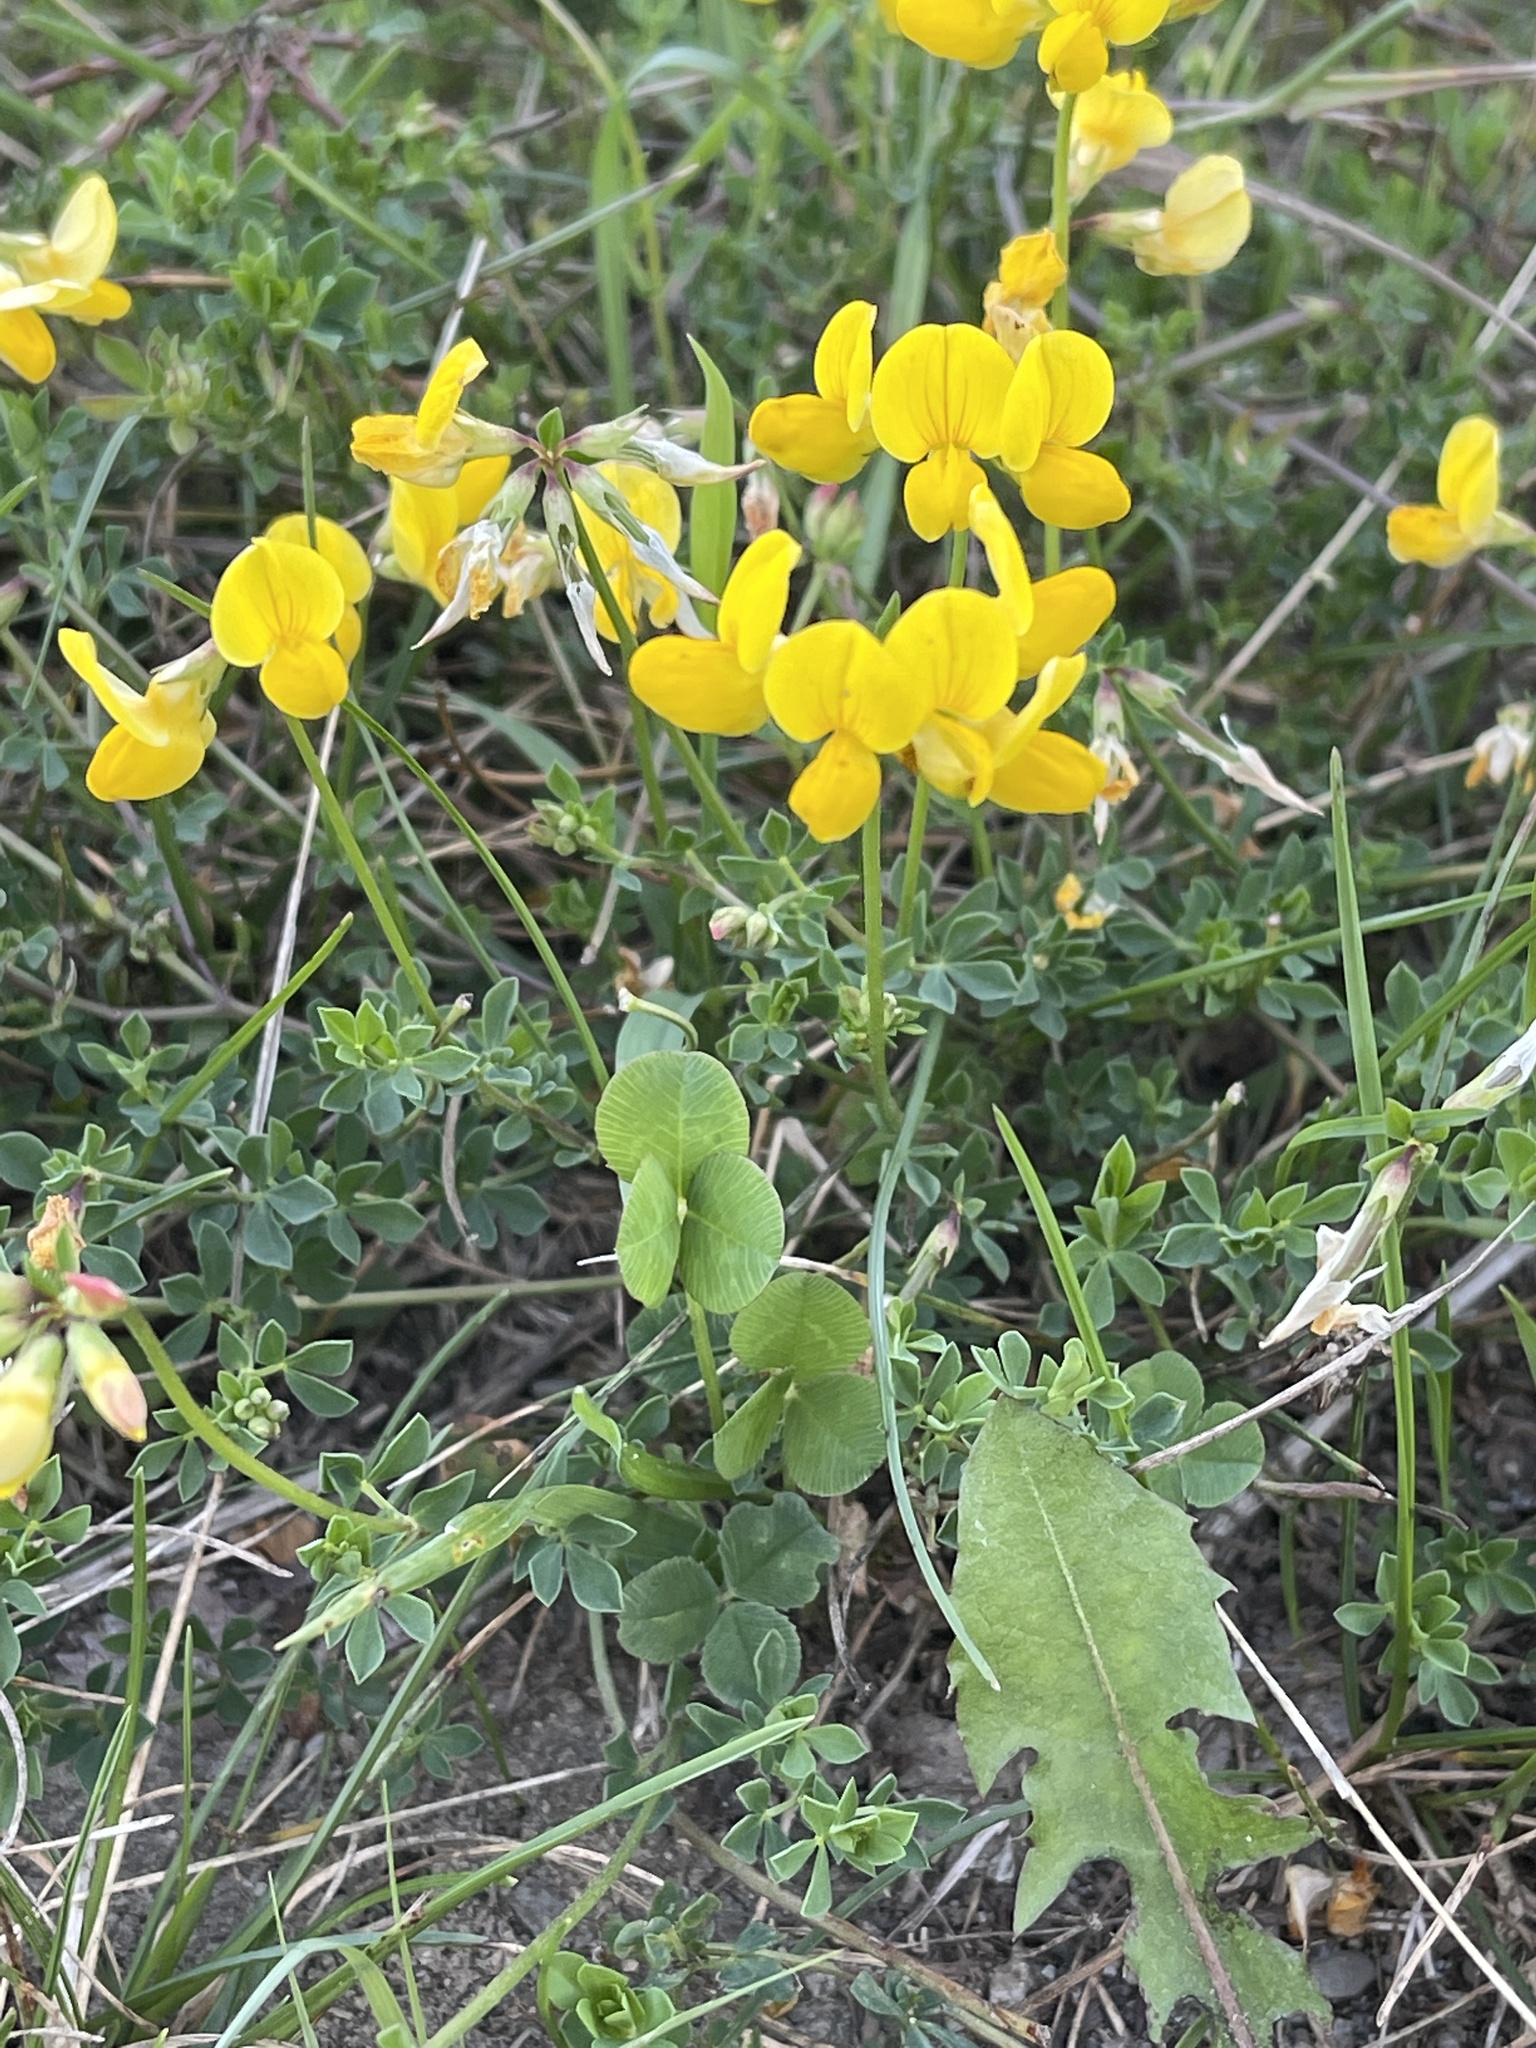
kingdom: Plantae
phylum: Tracheophyta
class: Magnoliopsida
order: Fabales
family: Fabaceae
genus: Lotus
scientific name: Lotus corniculatus
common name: Common bird's-foot-trefoil
